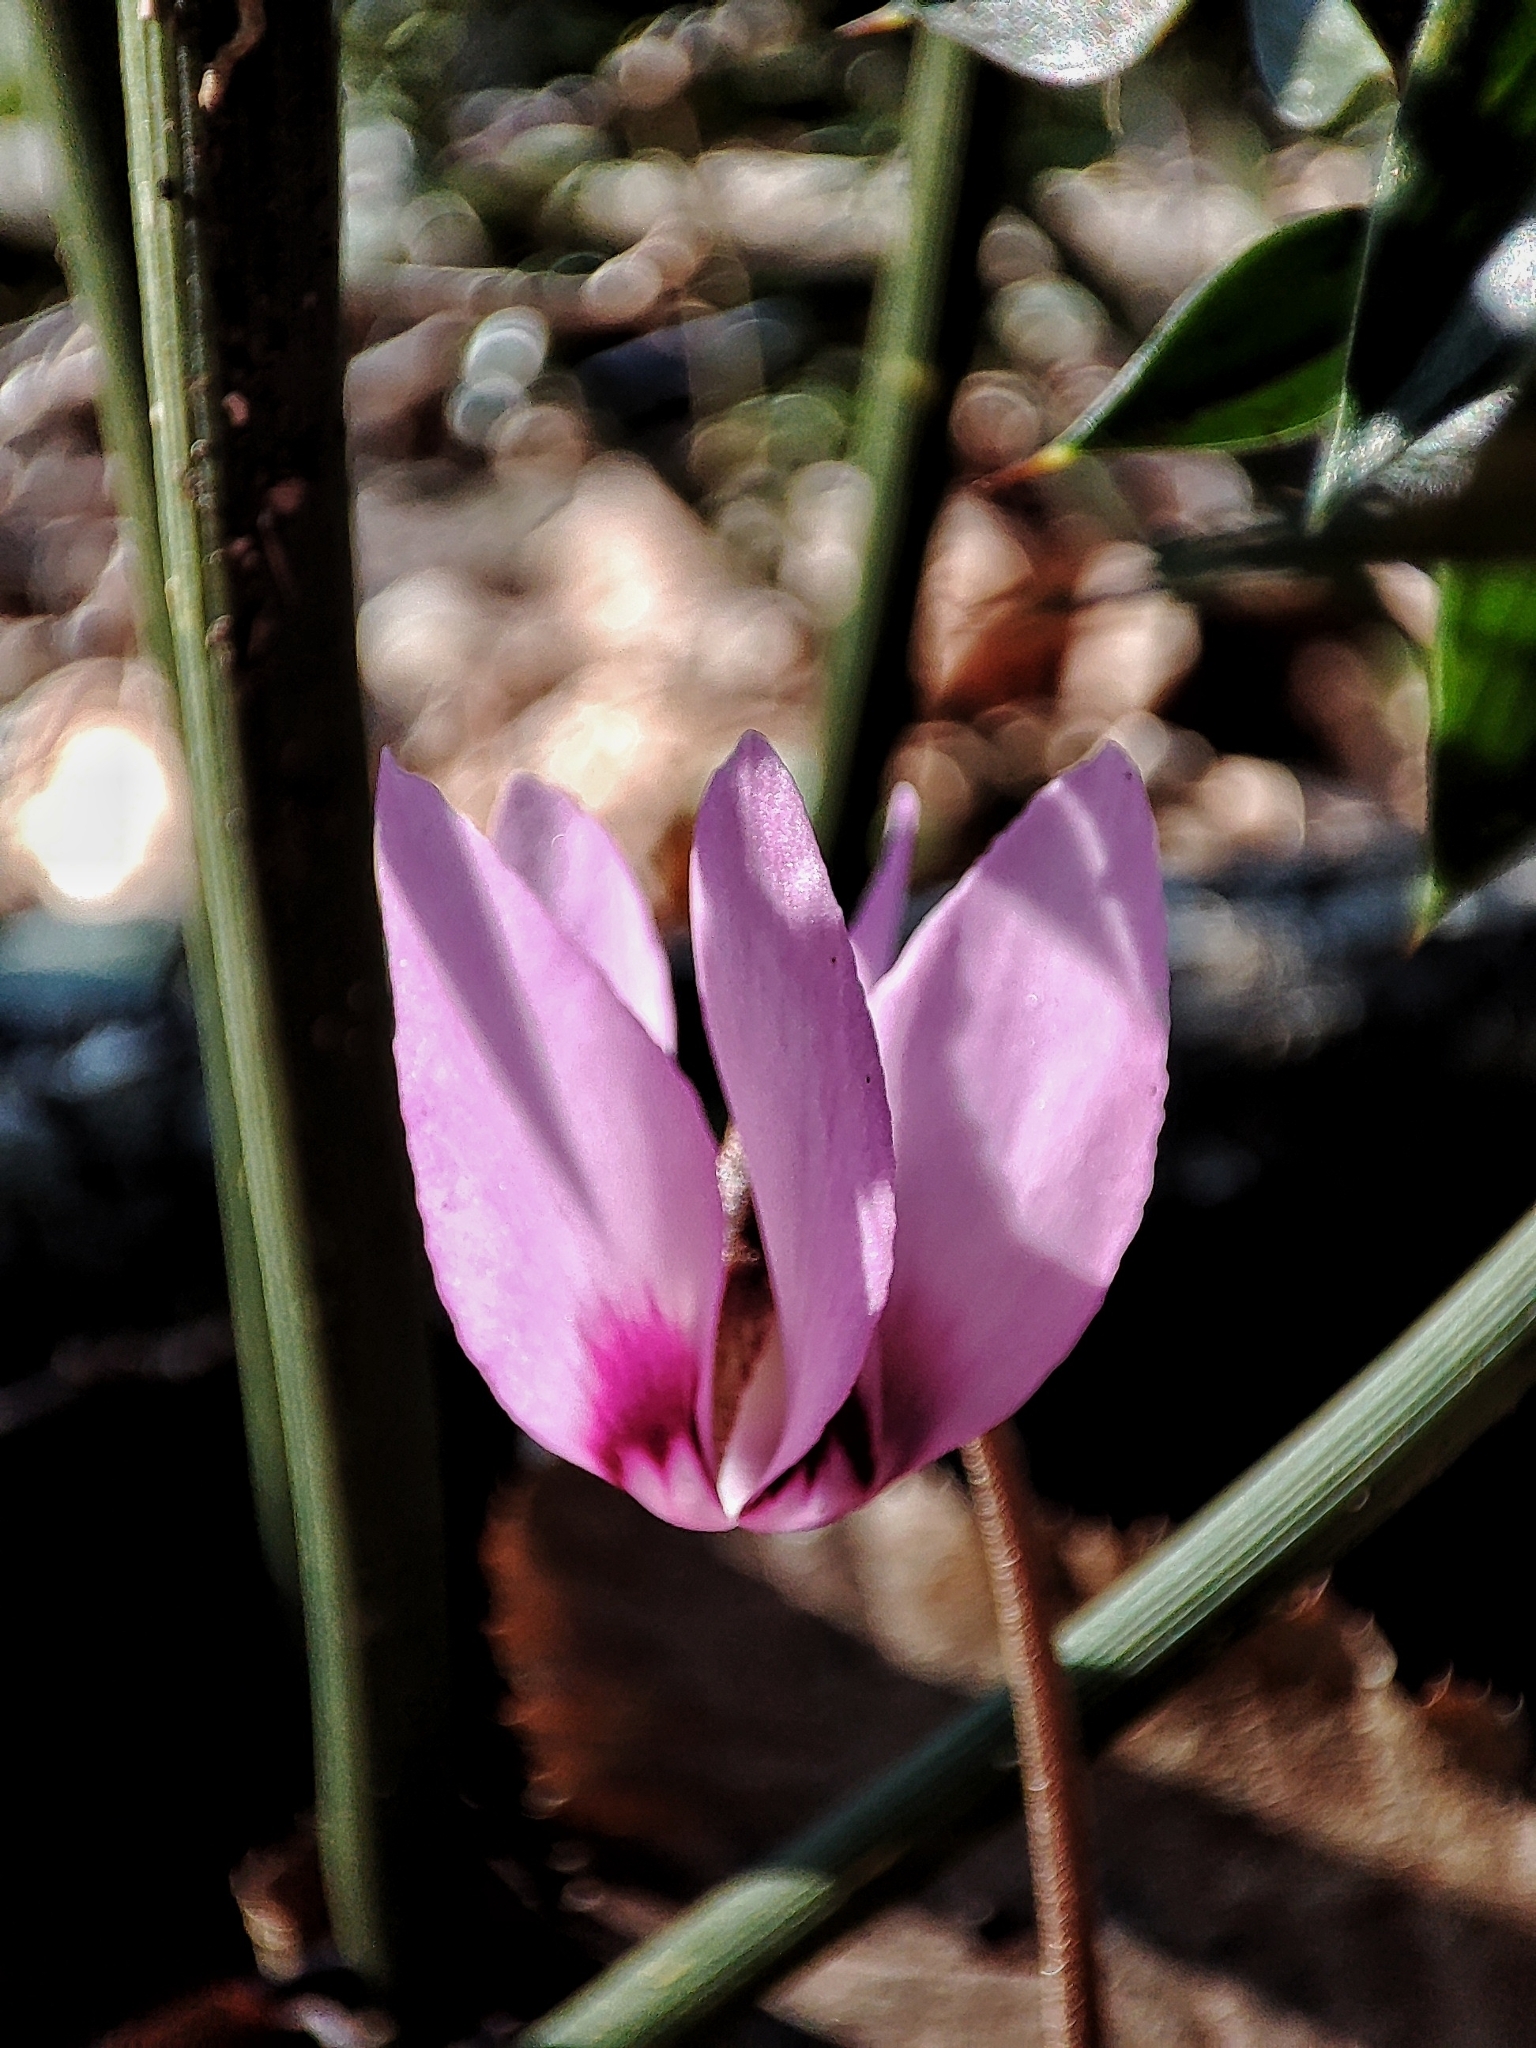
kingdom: Plantae
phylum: Tracheophyta
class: Magnoliopsida
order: Ericales
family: Primulaceae
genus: Cyclamen
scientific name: Cyclamen coum
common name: Eastern sowbread
